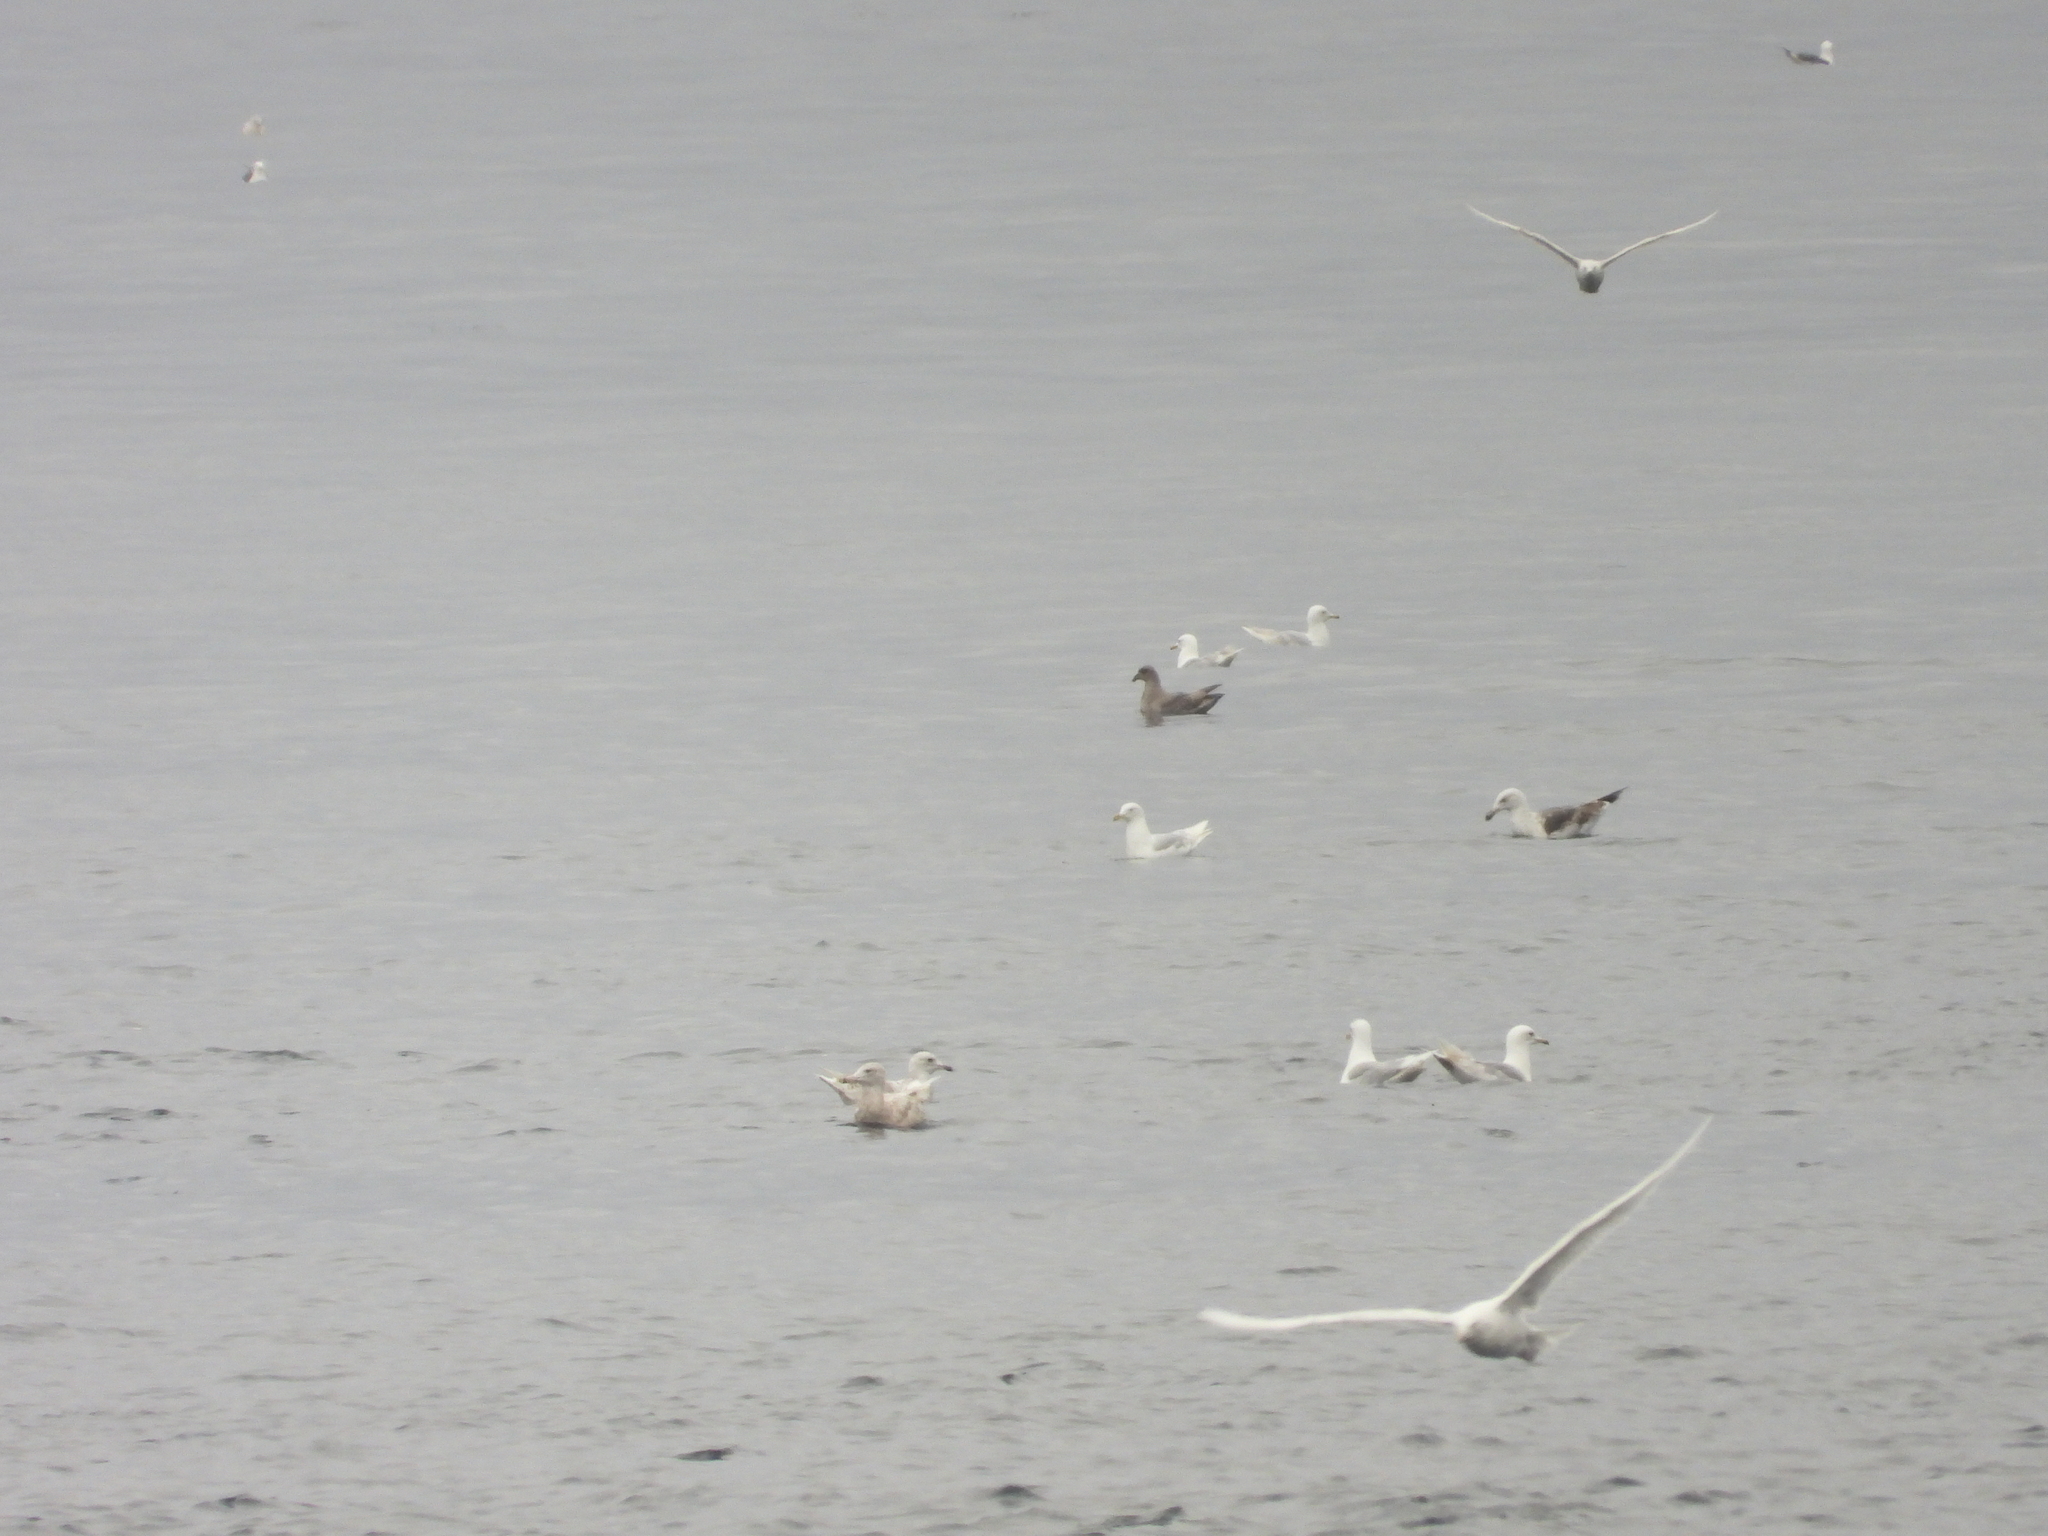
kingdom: Animalia
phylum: Chordata
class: Aves
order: Procellariiformes
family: Procellariidae
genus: Fulmarus
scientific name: Fulmarus glacialis
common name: Northern fulmar
